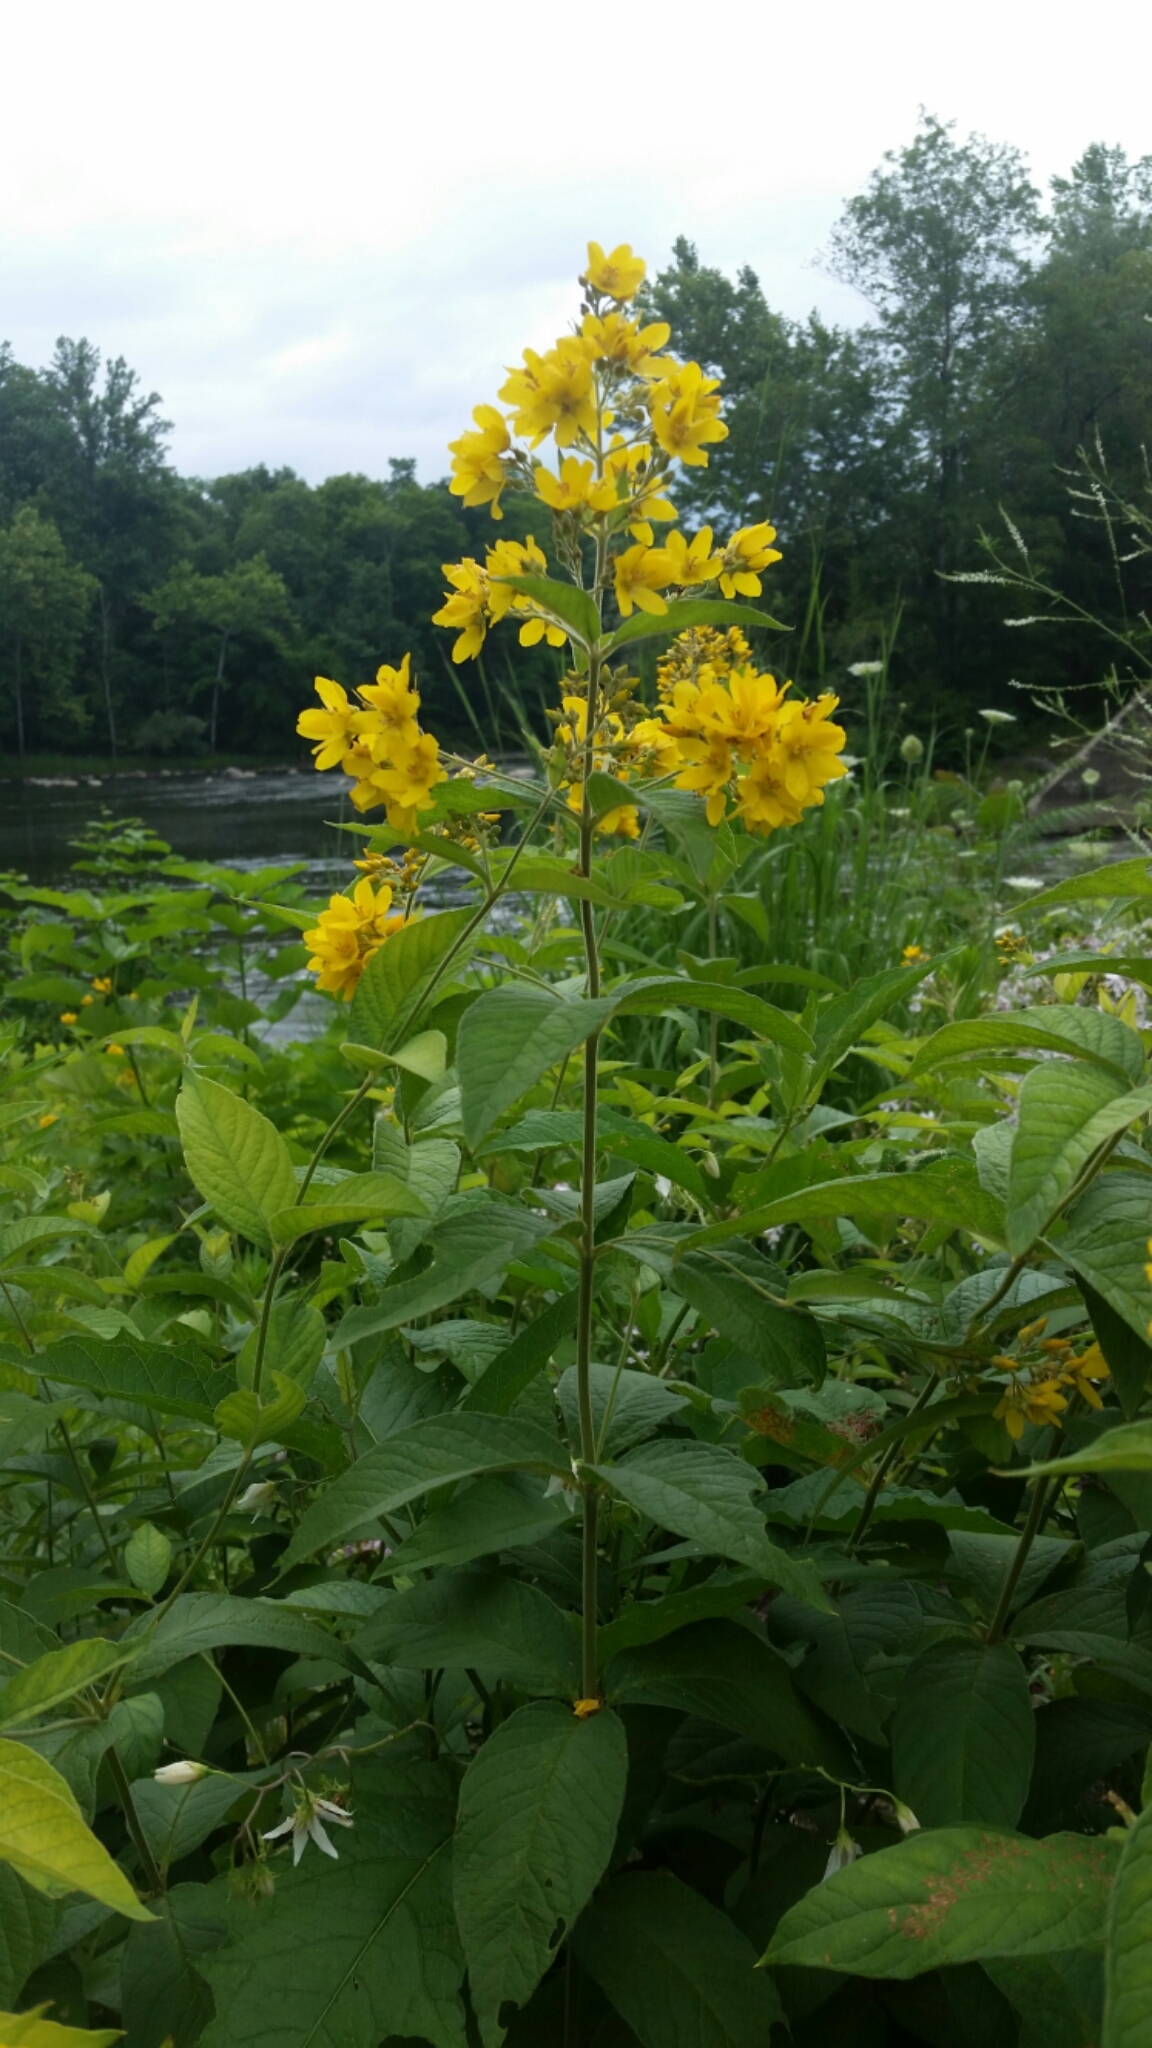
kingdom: Plantae
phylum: Tracheophyta
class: Magnoliopsida
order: Ericales
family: Primulaceae
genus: Lysimachia
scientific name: Lysimachia vulgaris
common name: Yellow loosestrife
